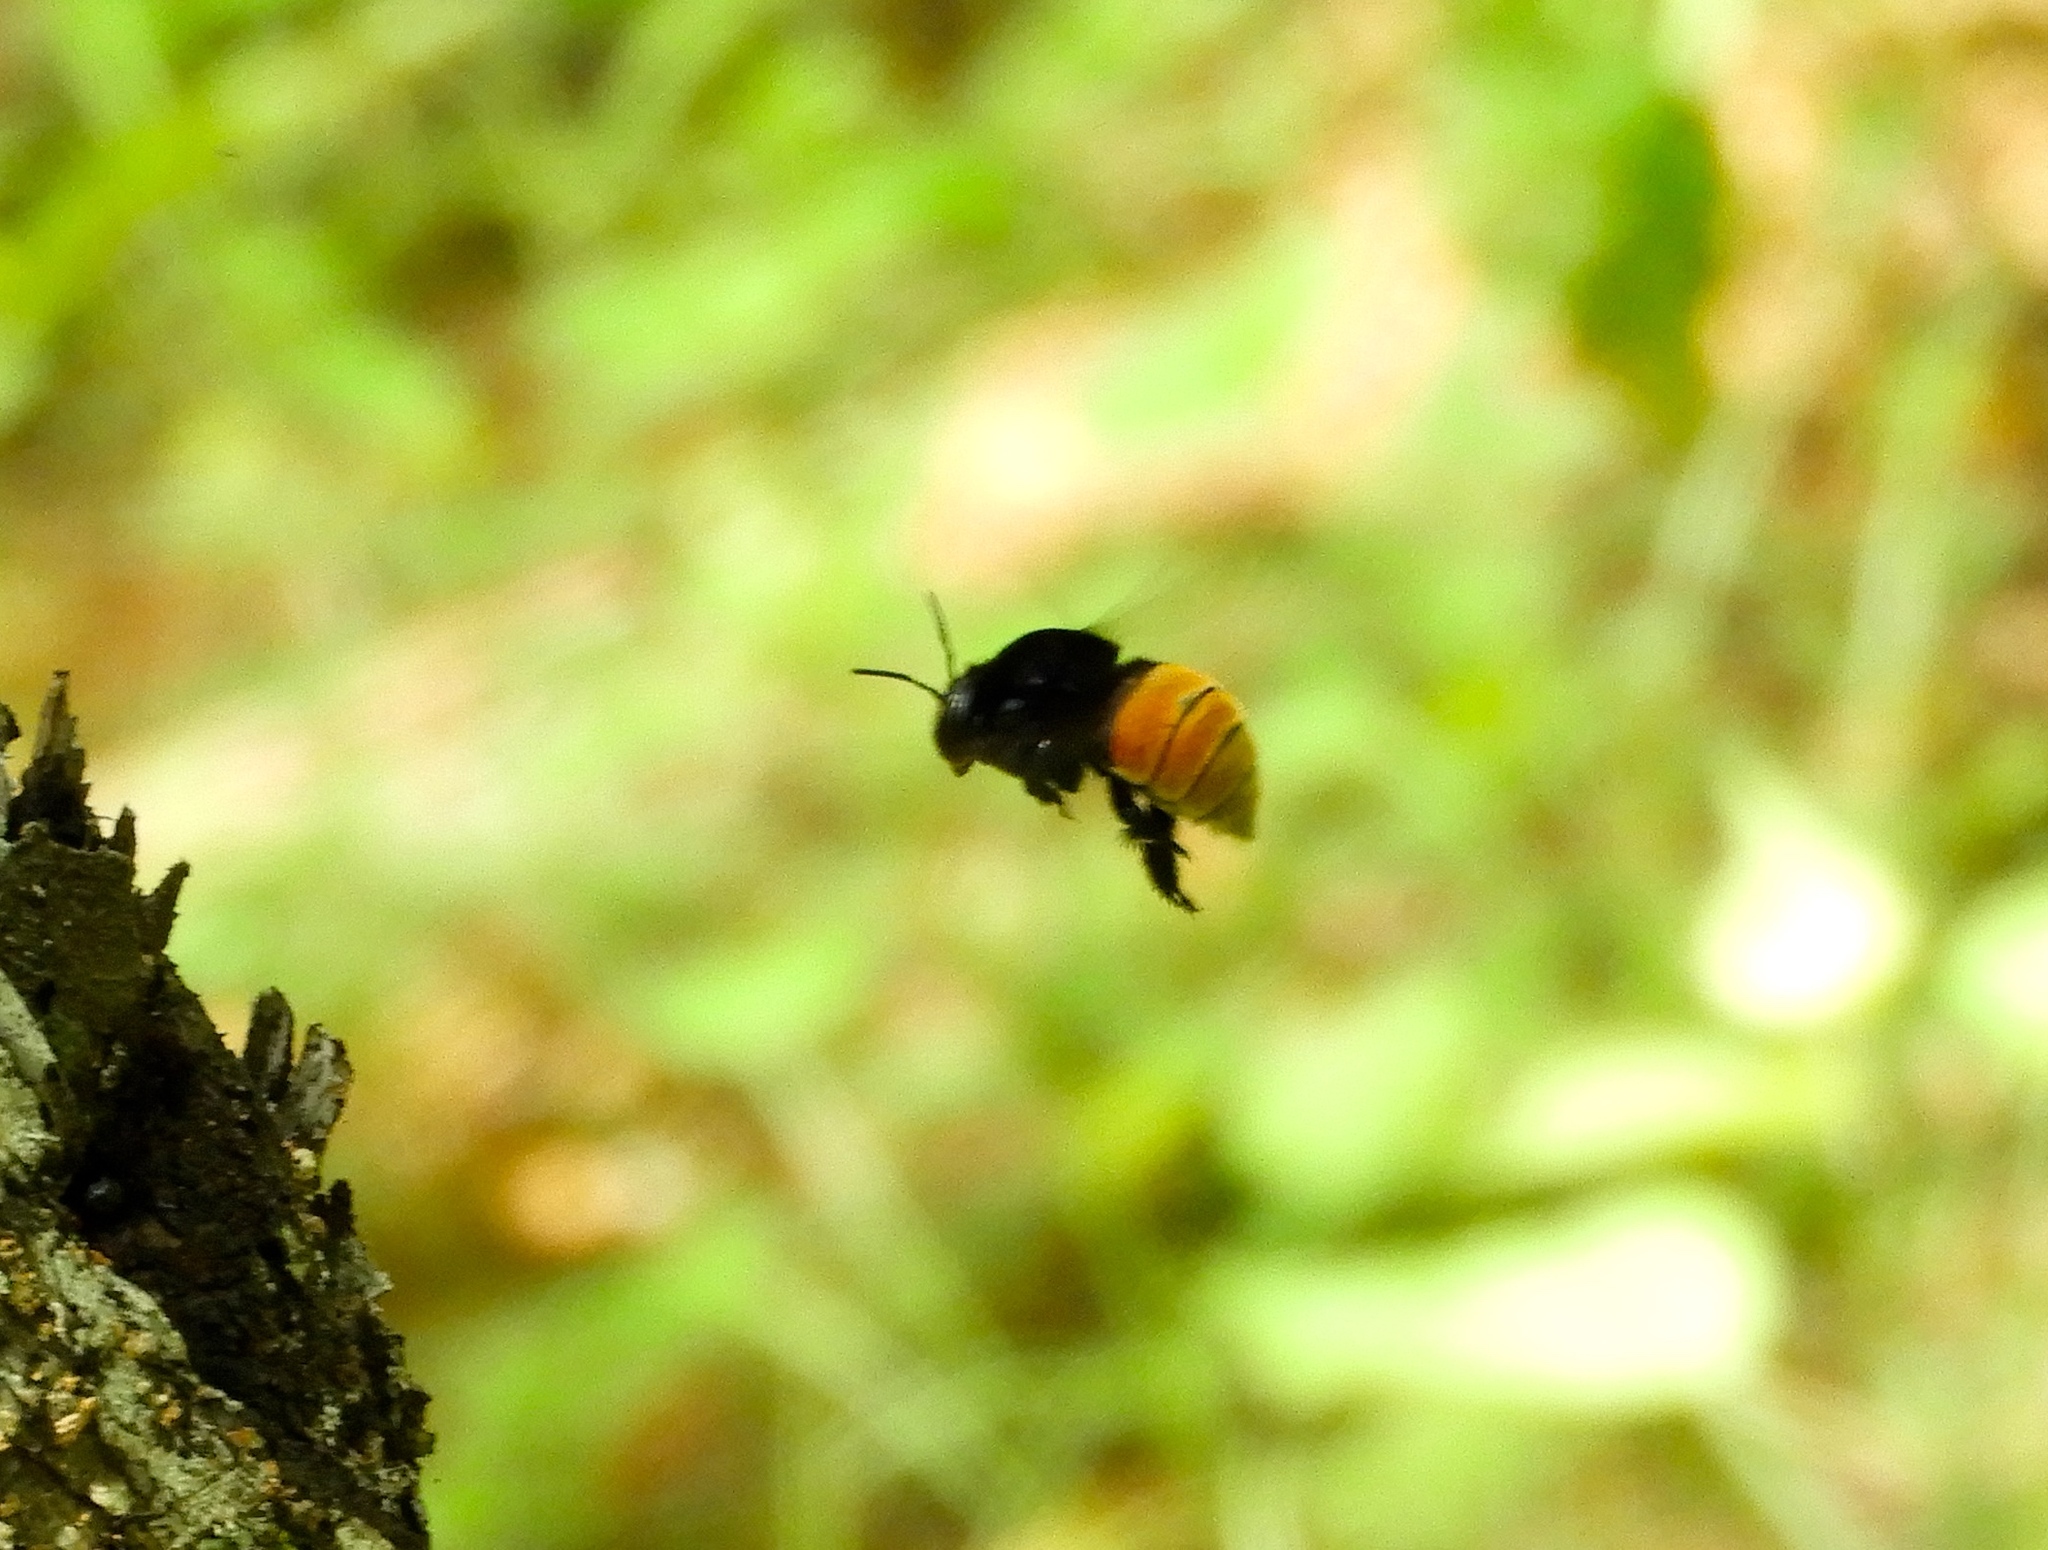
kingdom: Animalia
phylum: Arthropoda
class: Insecta
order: Hymenoptera
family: Apidae
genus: Eulaema
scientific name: Eulaema polychroma
